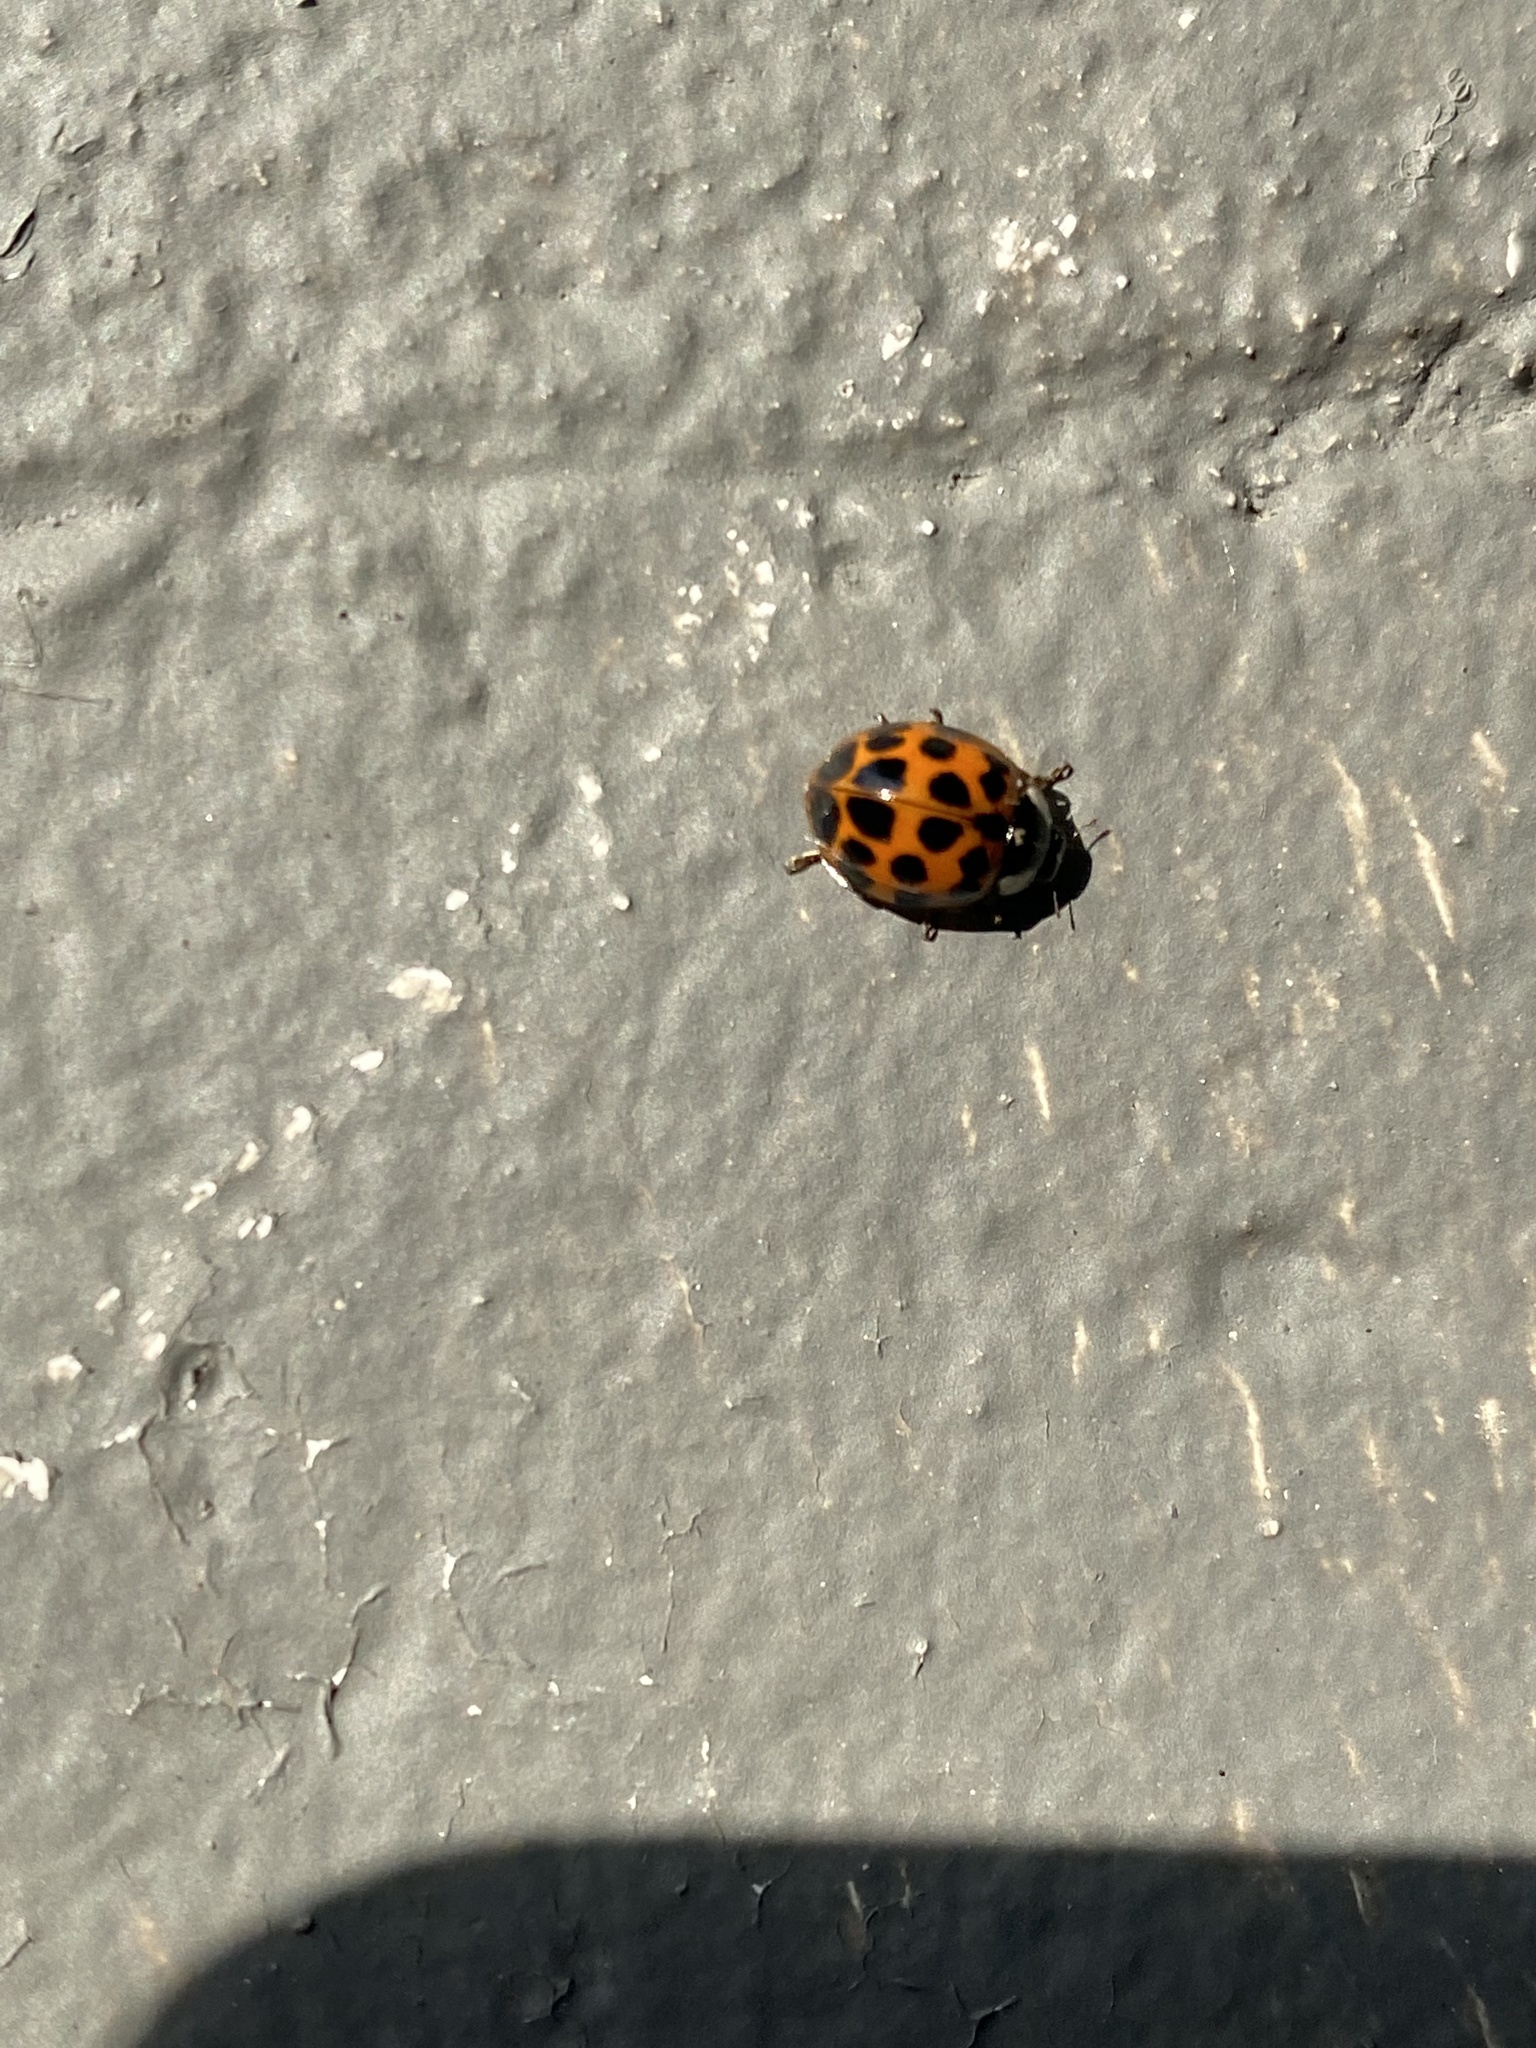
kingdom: Animalia
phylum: Arthropoda
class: Insecta
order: Coleoptera
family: Coccinellidae
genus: Harmonia
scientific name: Harmonia axyridis
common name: Harlequin ladybird
